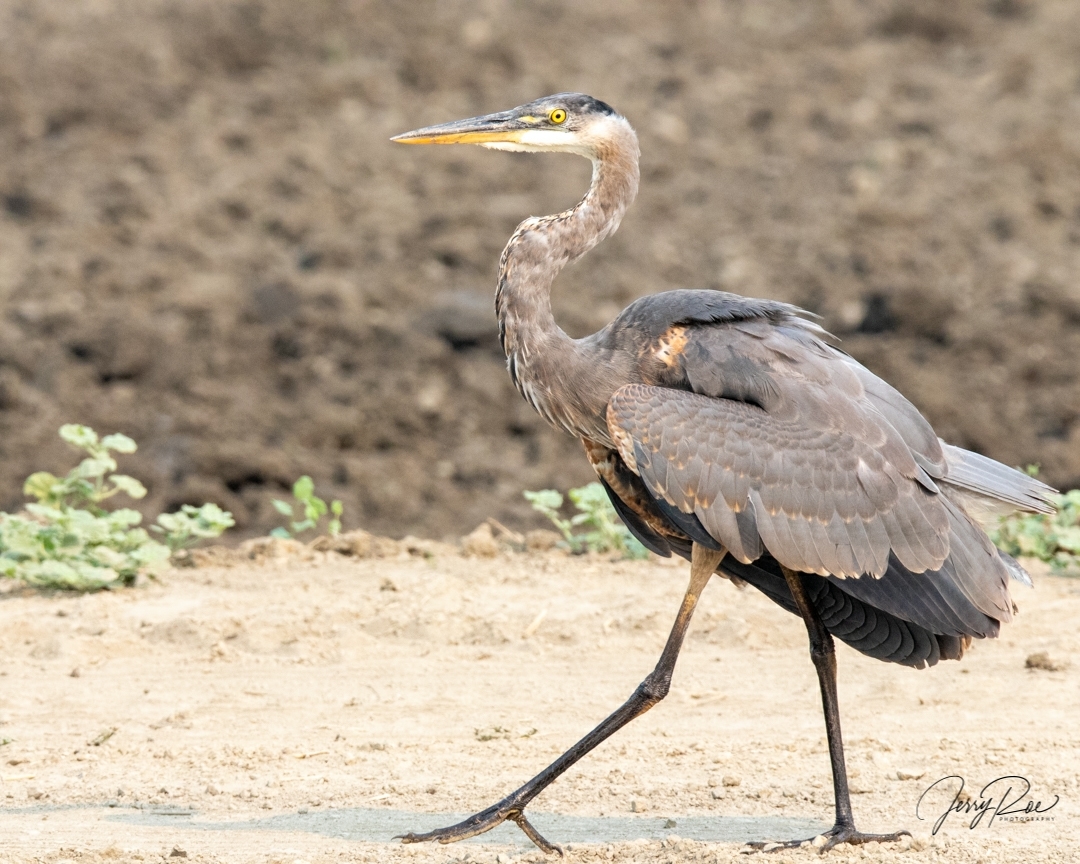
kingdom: Animalia
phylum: Chordata
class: Aves
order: Pelecaniformes
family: Ardeidae
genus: Ardea
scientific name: Ardea herodias
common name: Great blue heron
